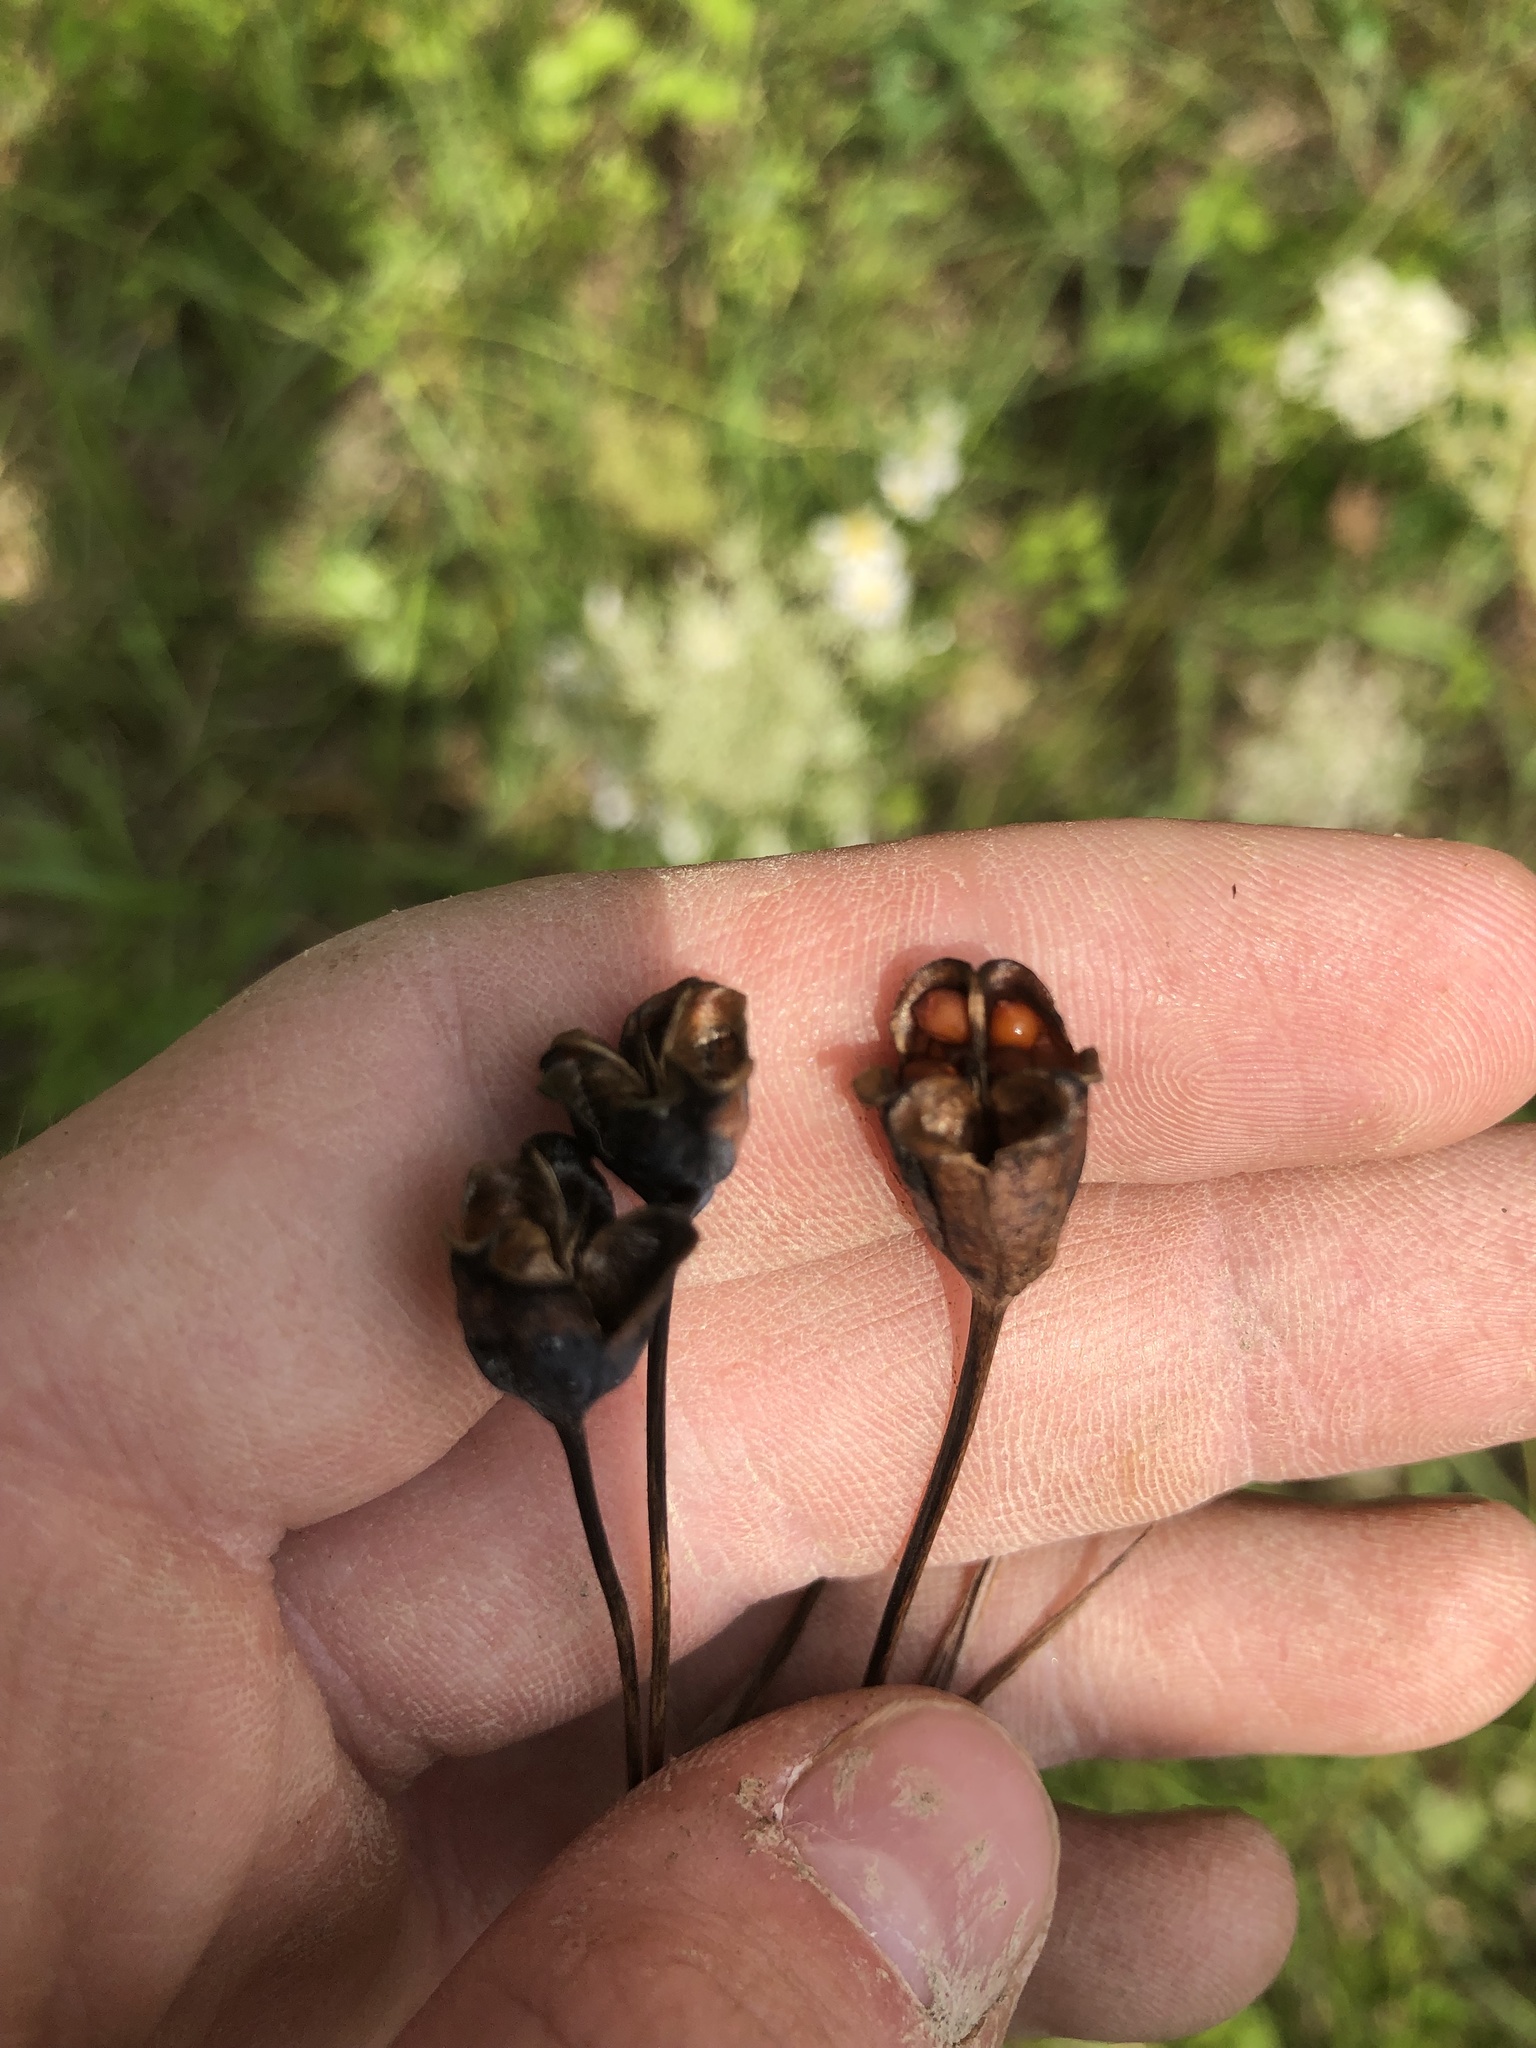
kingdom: Plantae
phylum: Tracheophyta
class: Liliopsida
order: Asparagales
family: Iridaceae
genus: Nemastylis
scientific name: Nemastylis geminiflora
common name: Prairie celestial
